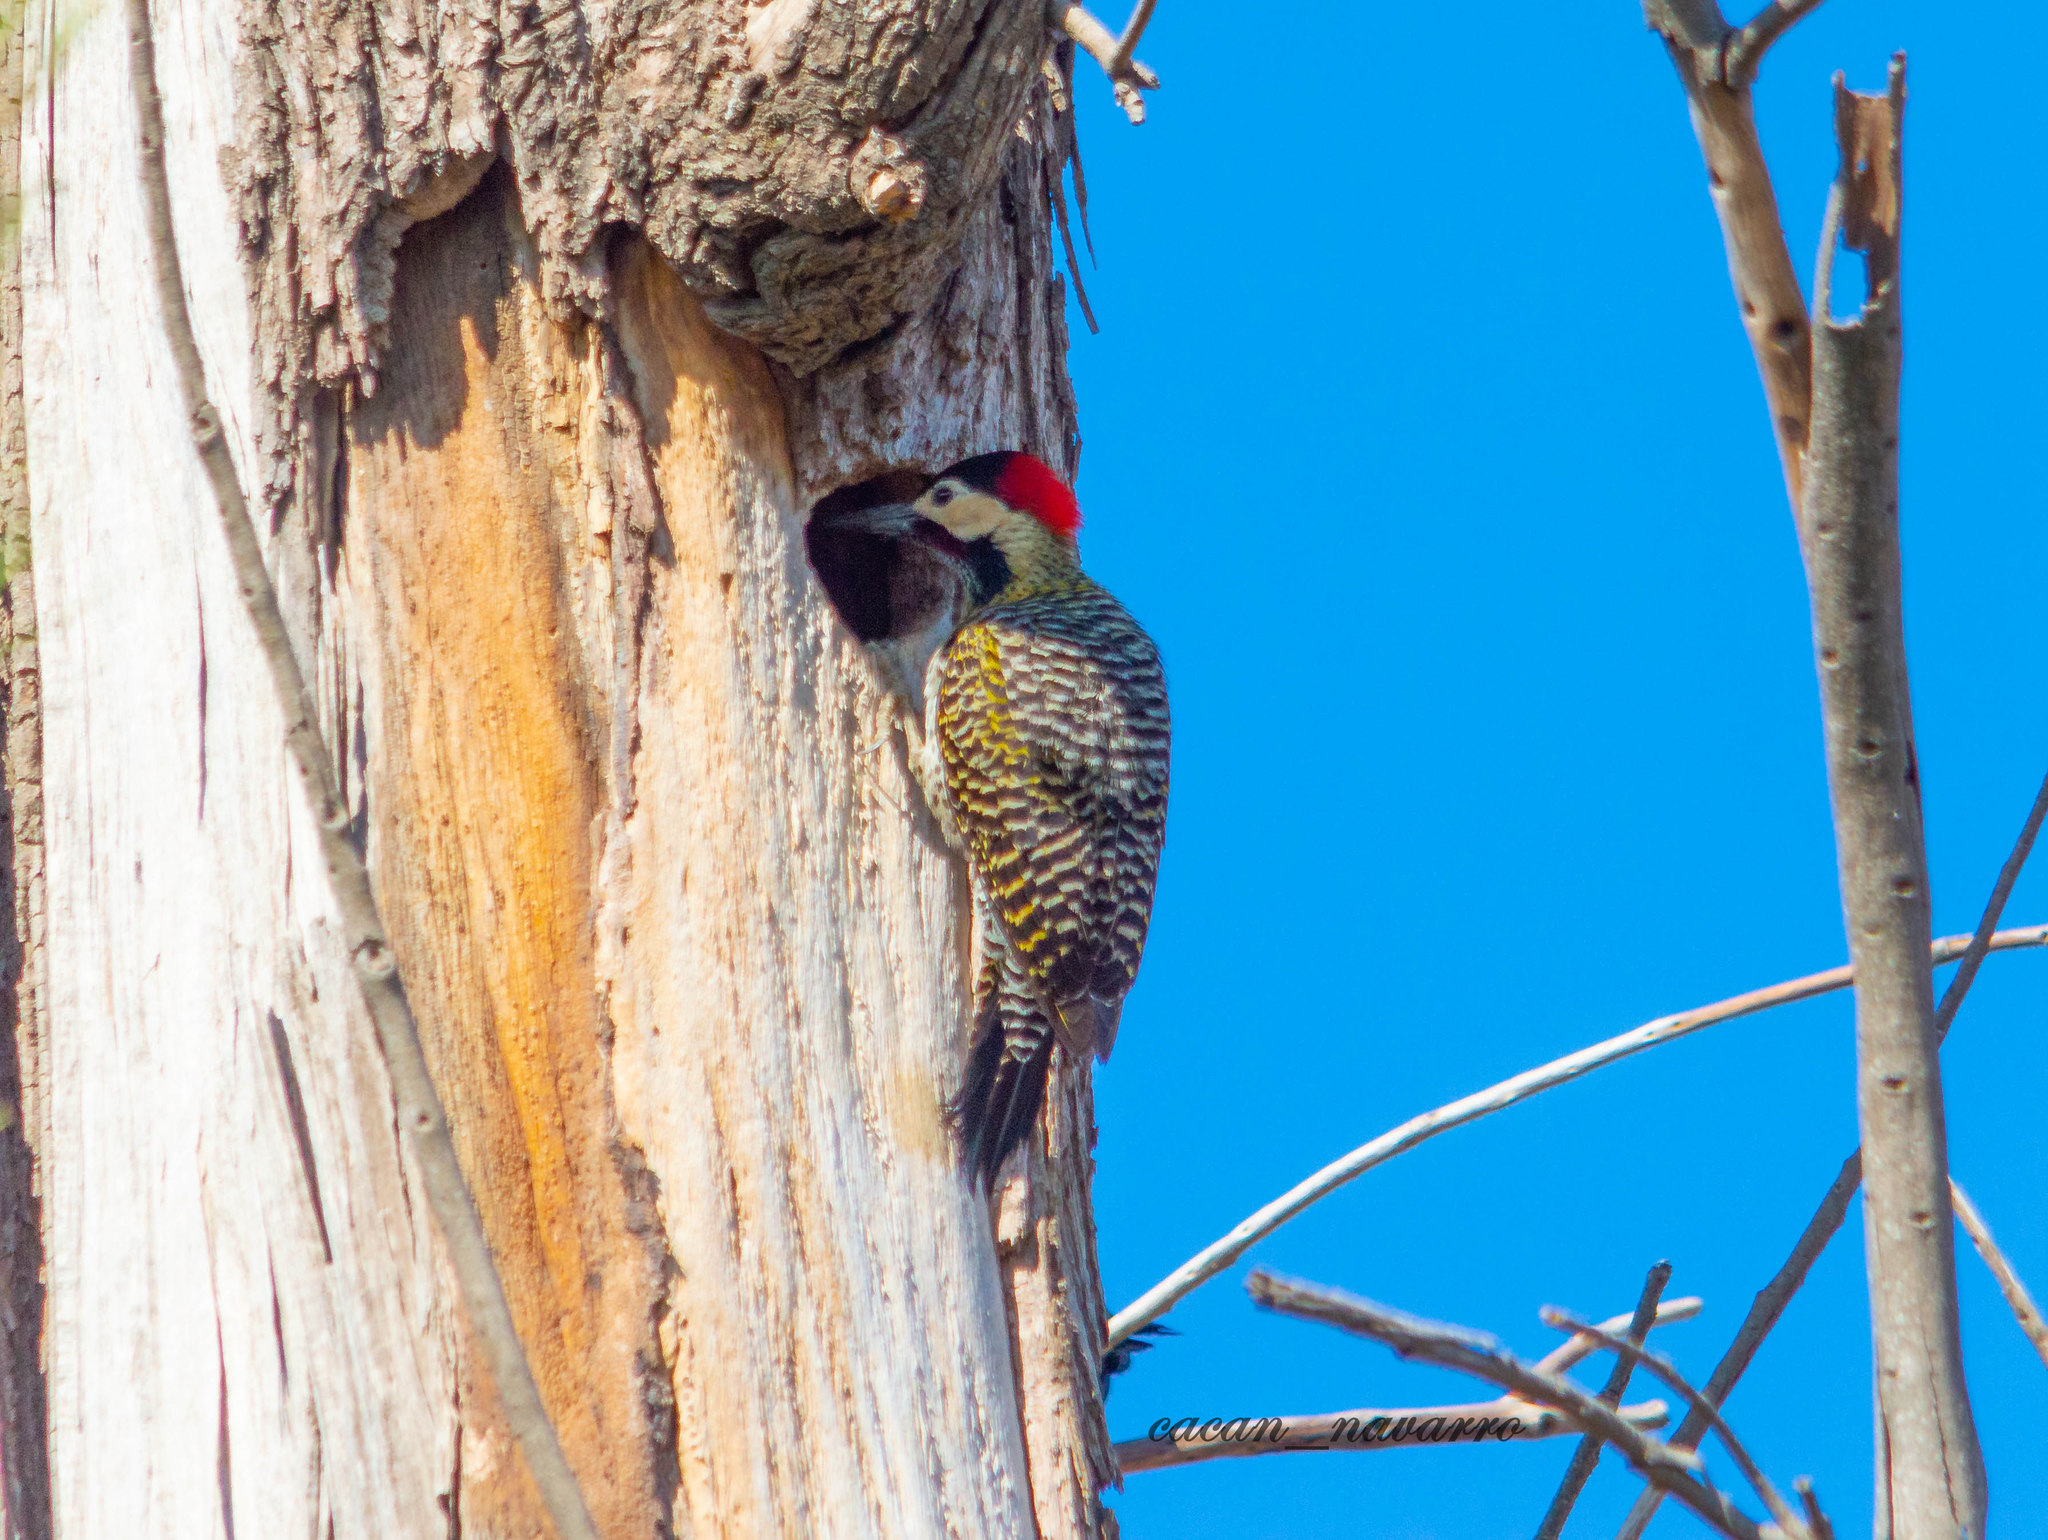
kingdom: Animalia
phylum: Chordata
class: Aves
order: Piciformes
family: Picidae
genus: Colaptes
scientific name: Colaptes melanochloros
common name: Green-barred woodpecker
